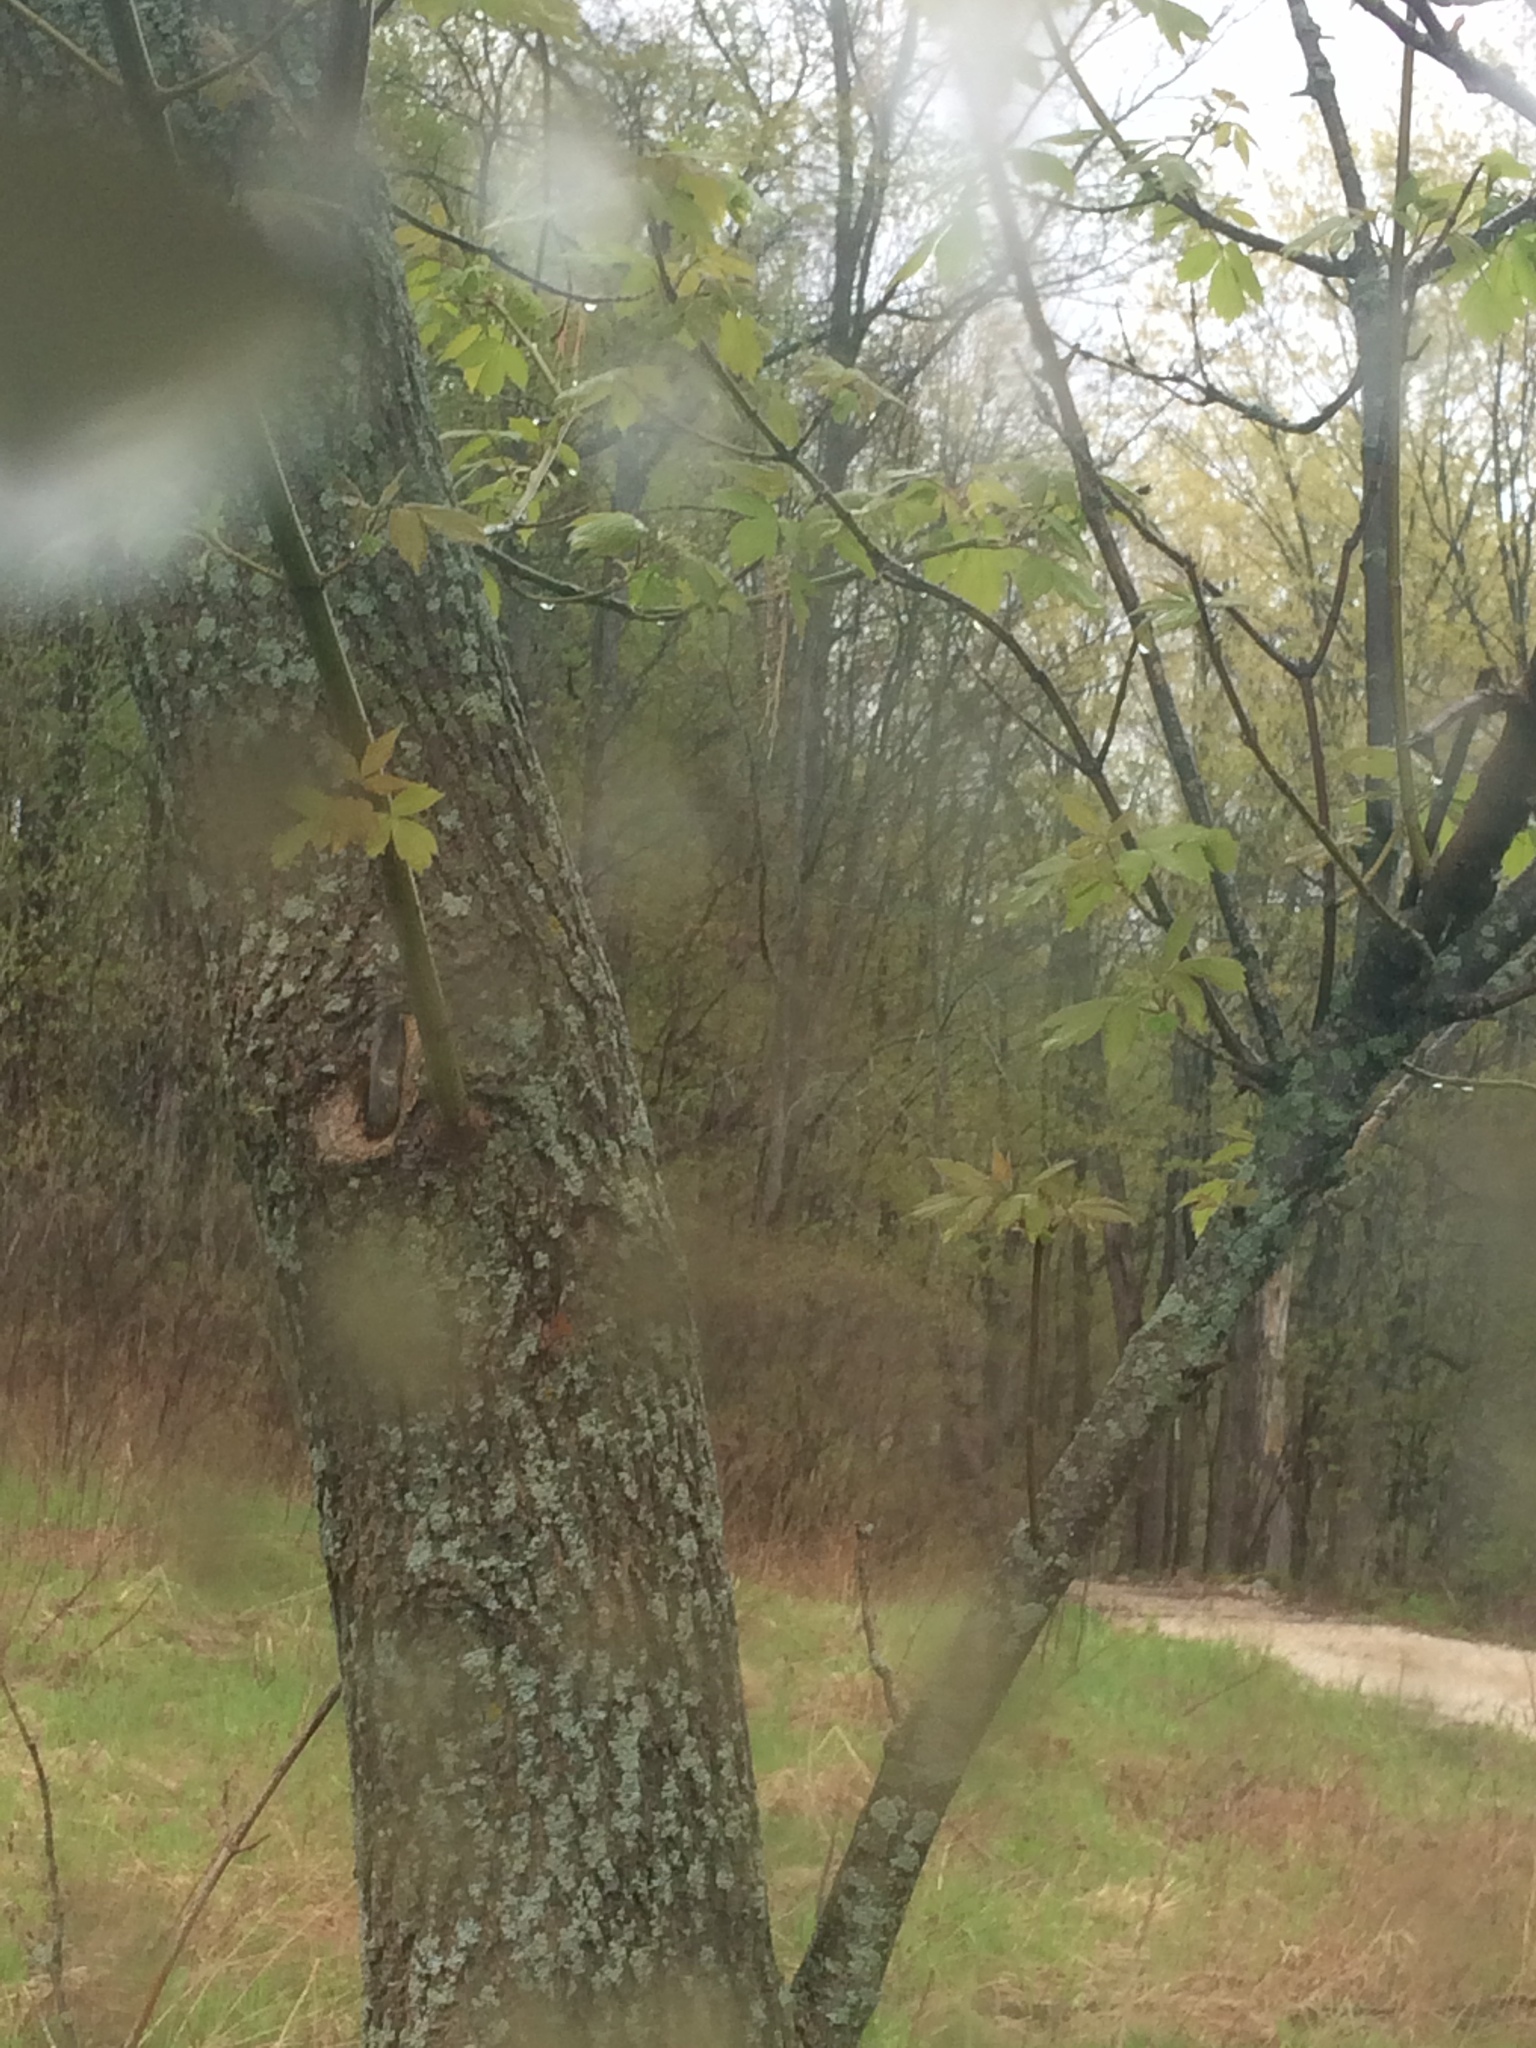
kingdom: Plantae
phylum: Tracheophyta
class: Magnoliopsida
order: Sapindales
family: Sapindaceae
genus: Acer
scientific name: Acer negundo
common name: Ashleaf maple
